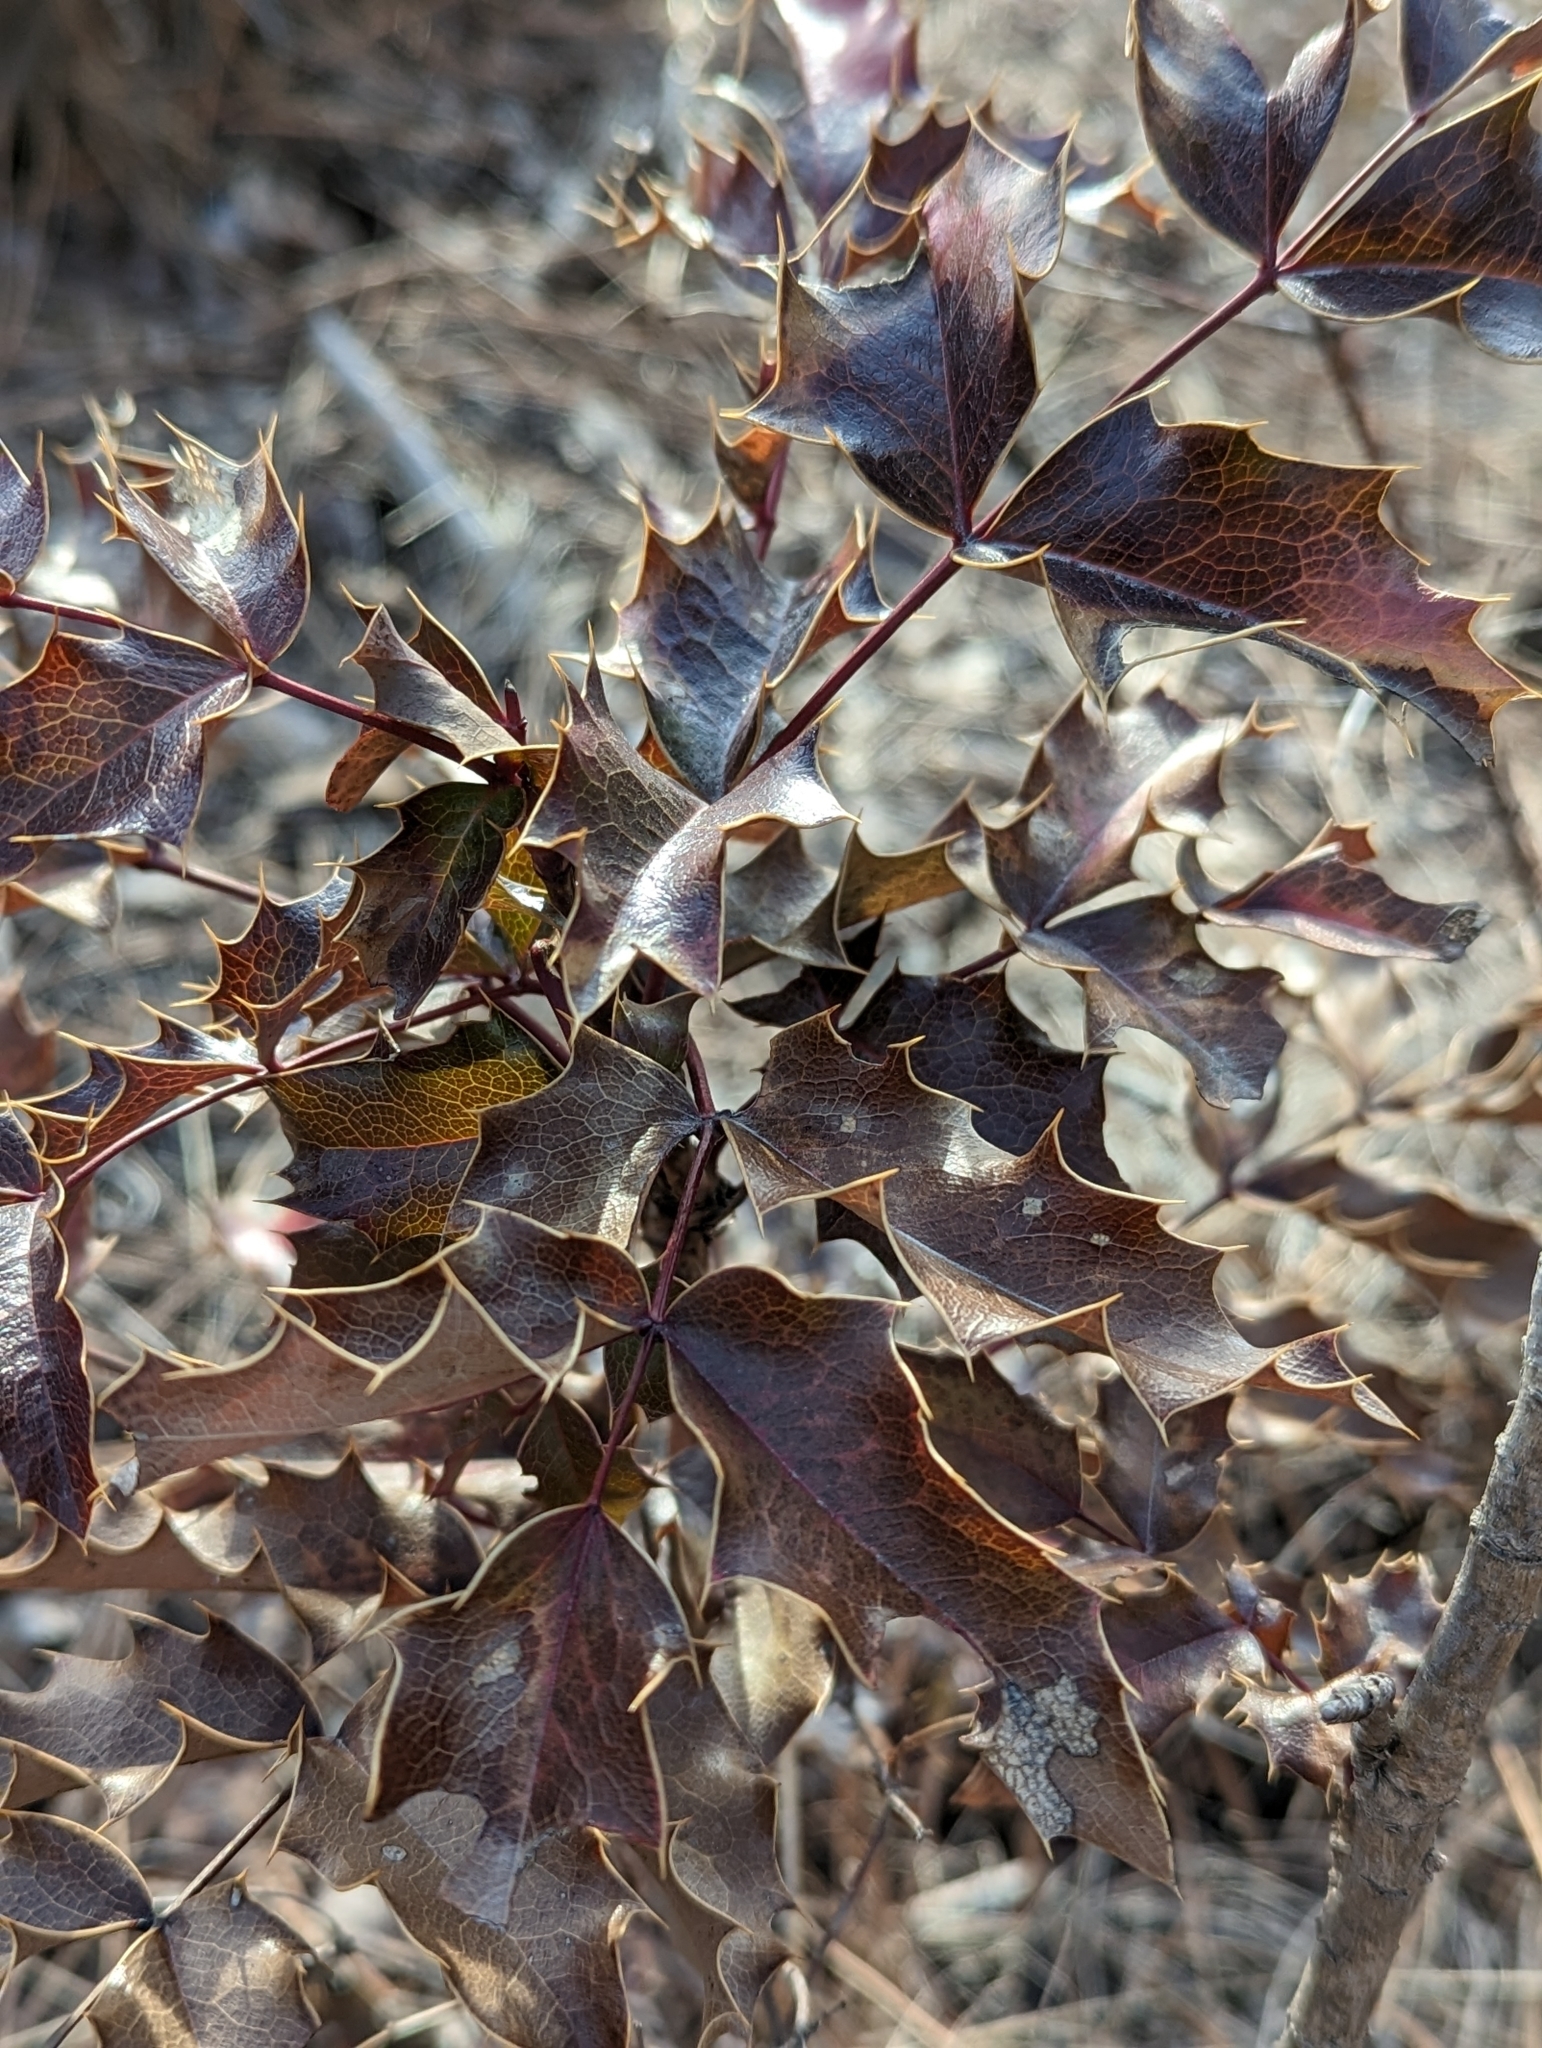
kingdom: Plantae
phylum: Tracheophyta
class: Magnoliopsida
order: Ranunculales
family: Berberidaceae
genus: Mahonia
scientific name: Mahonia aquifolium
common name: Oregon-grape
